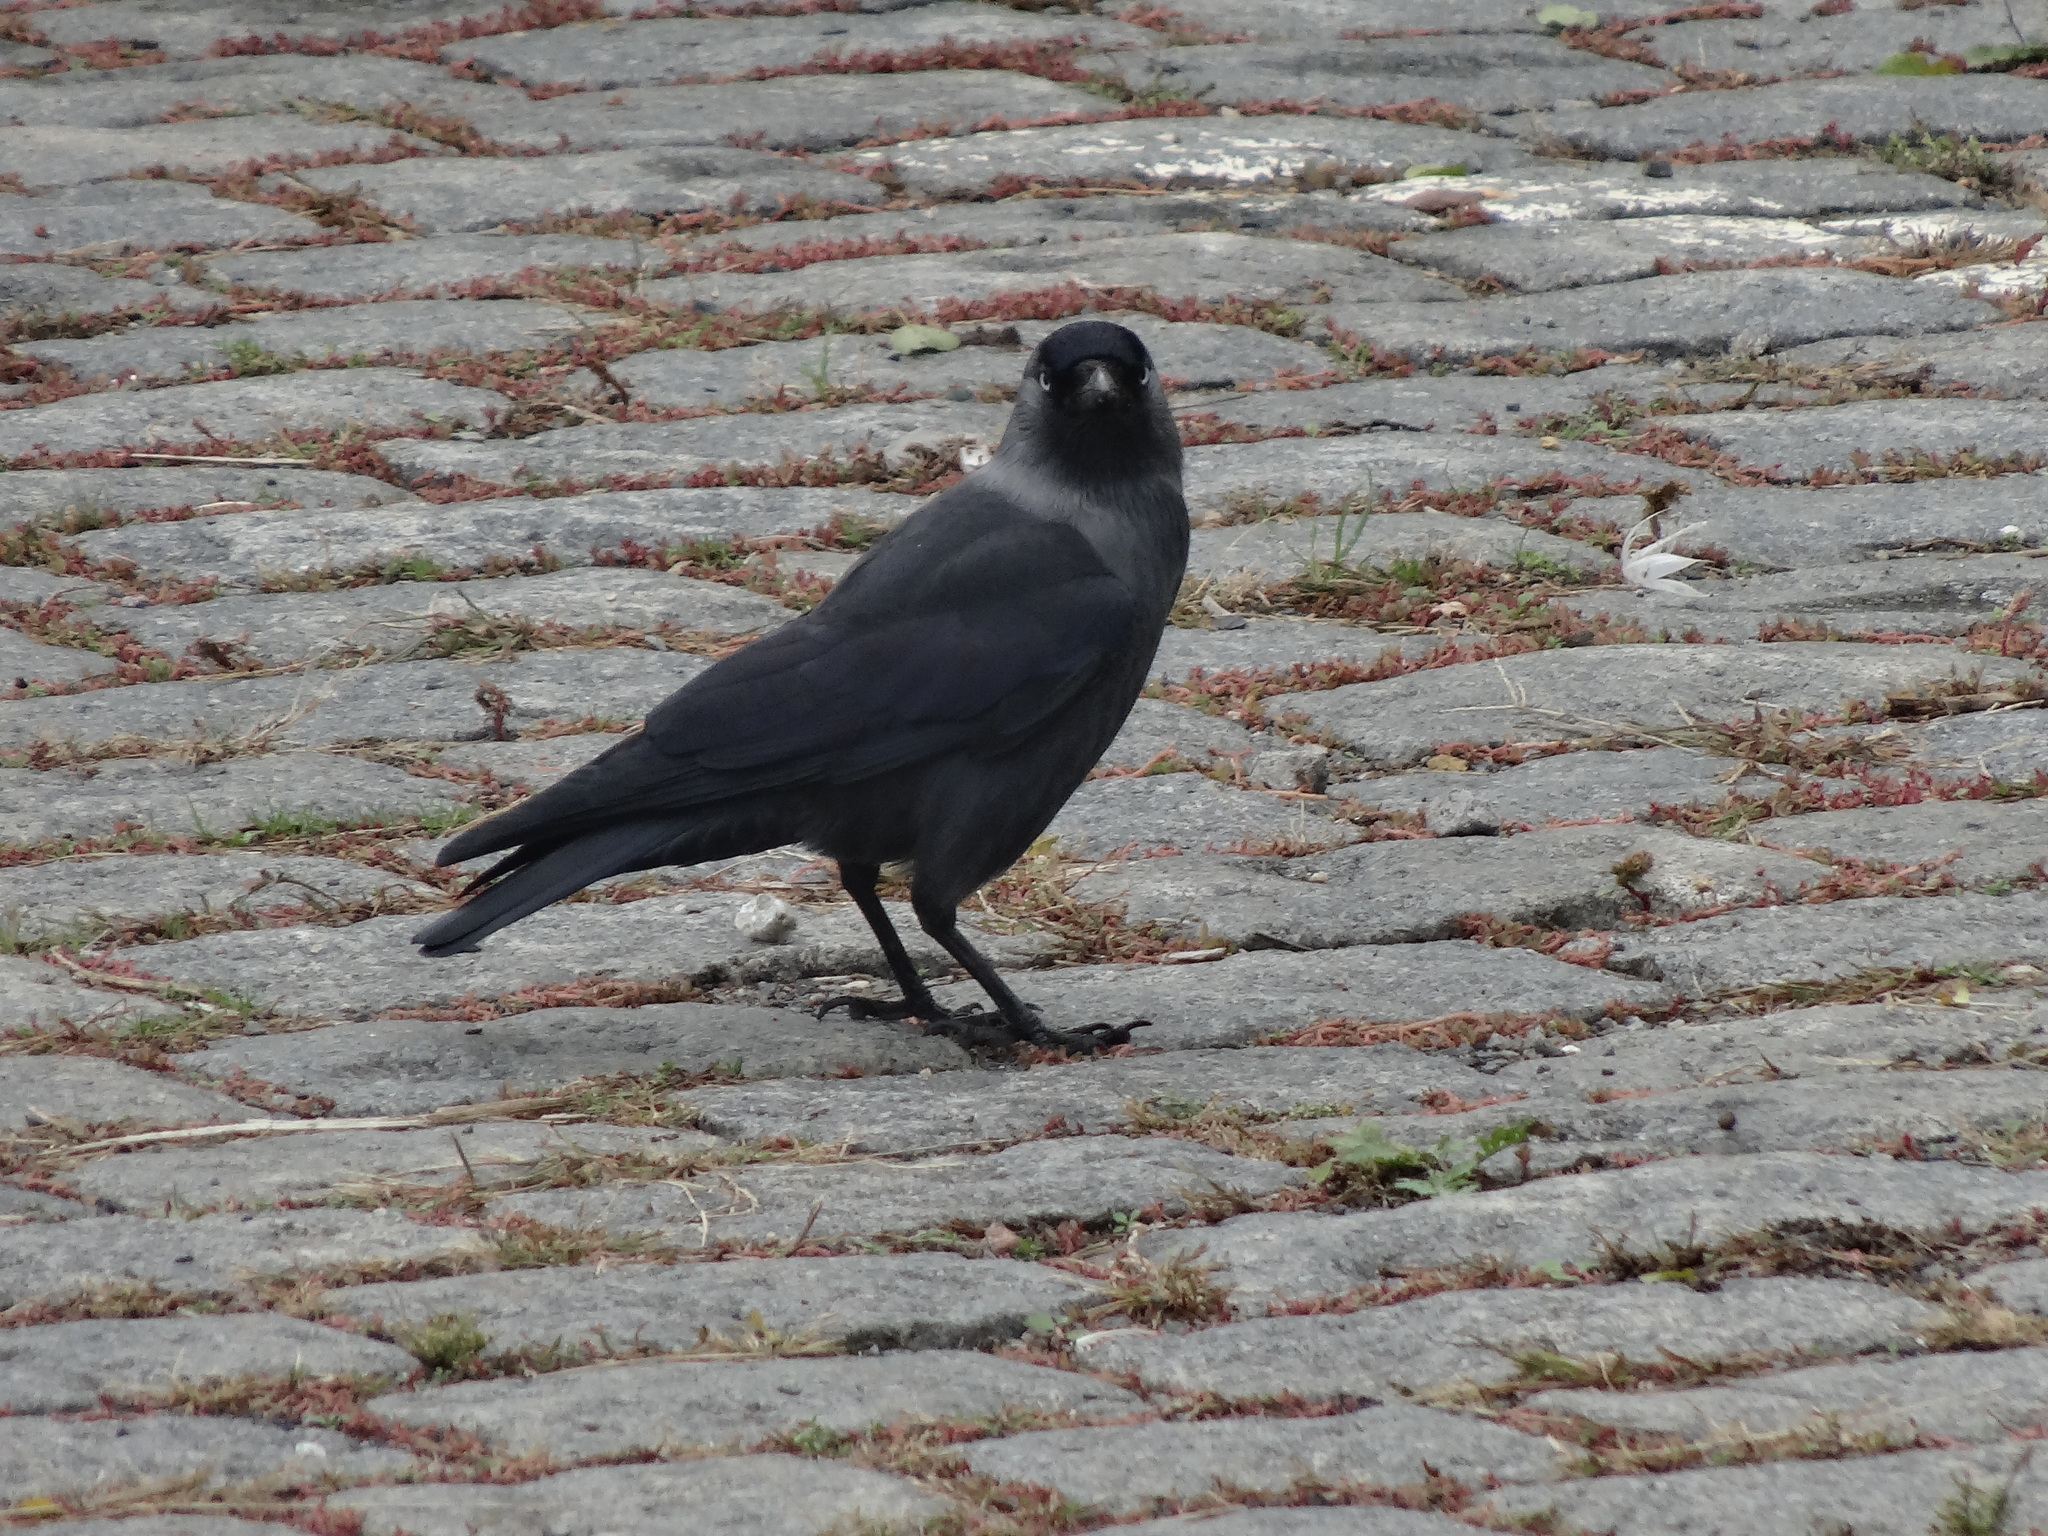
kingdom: Animalia
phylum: Chordata
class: Aves
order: Passeriformes
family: Corvidae
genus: Coloeus
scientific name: Coloeus monedula
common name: Western jackdaw
